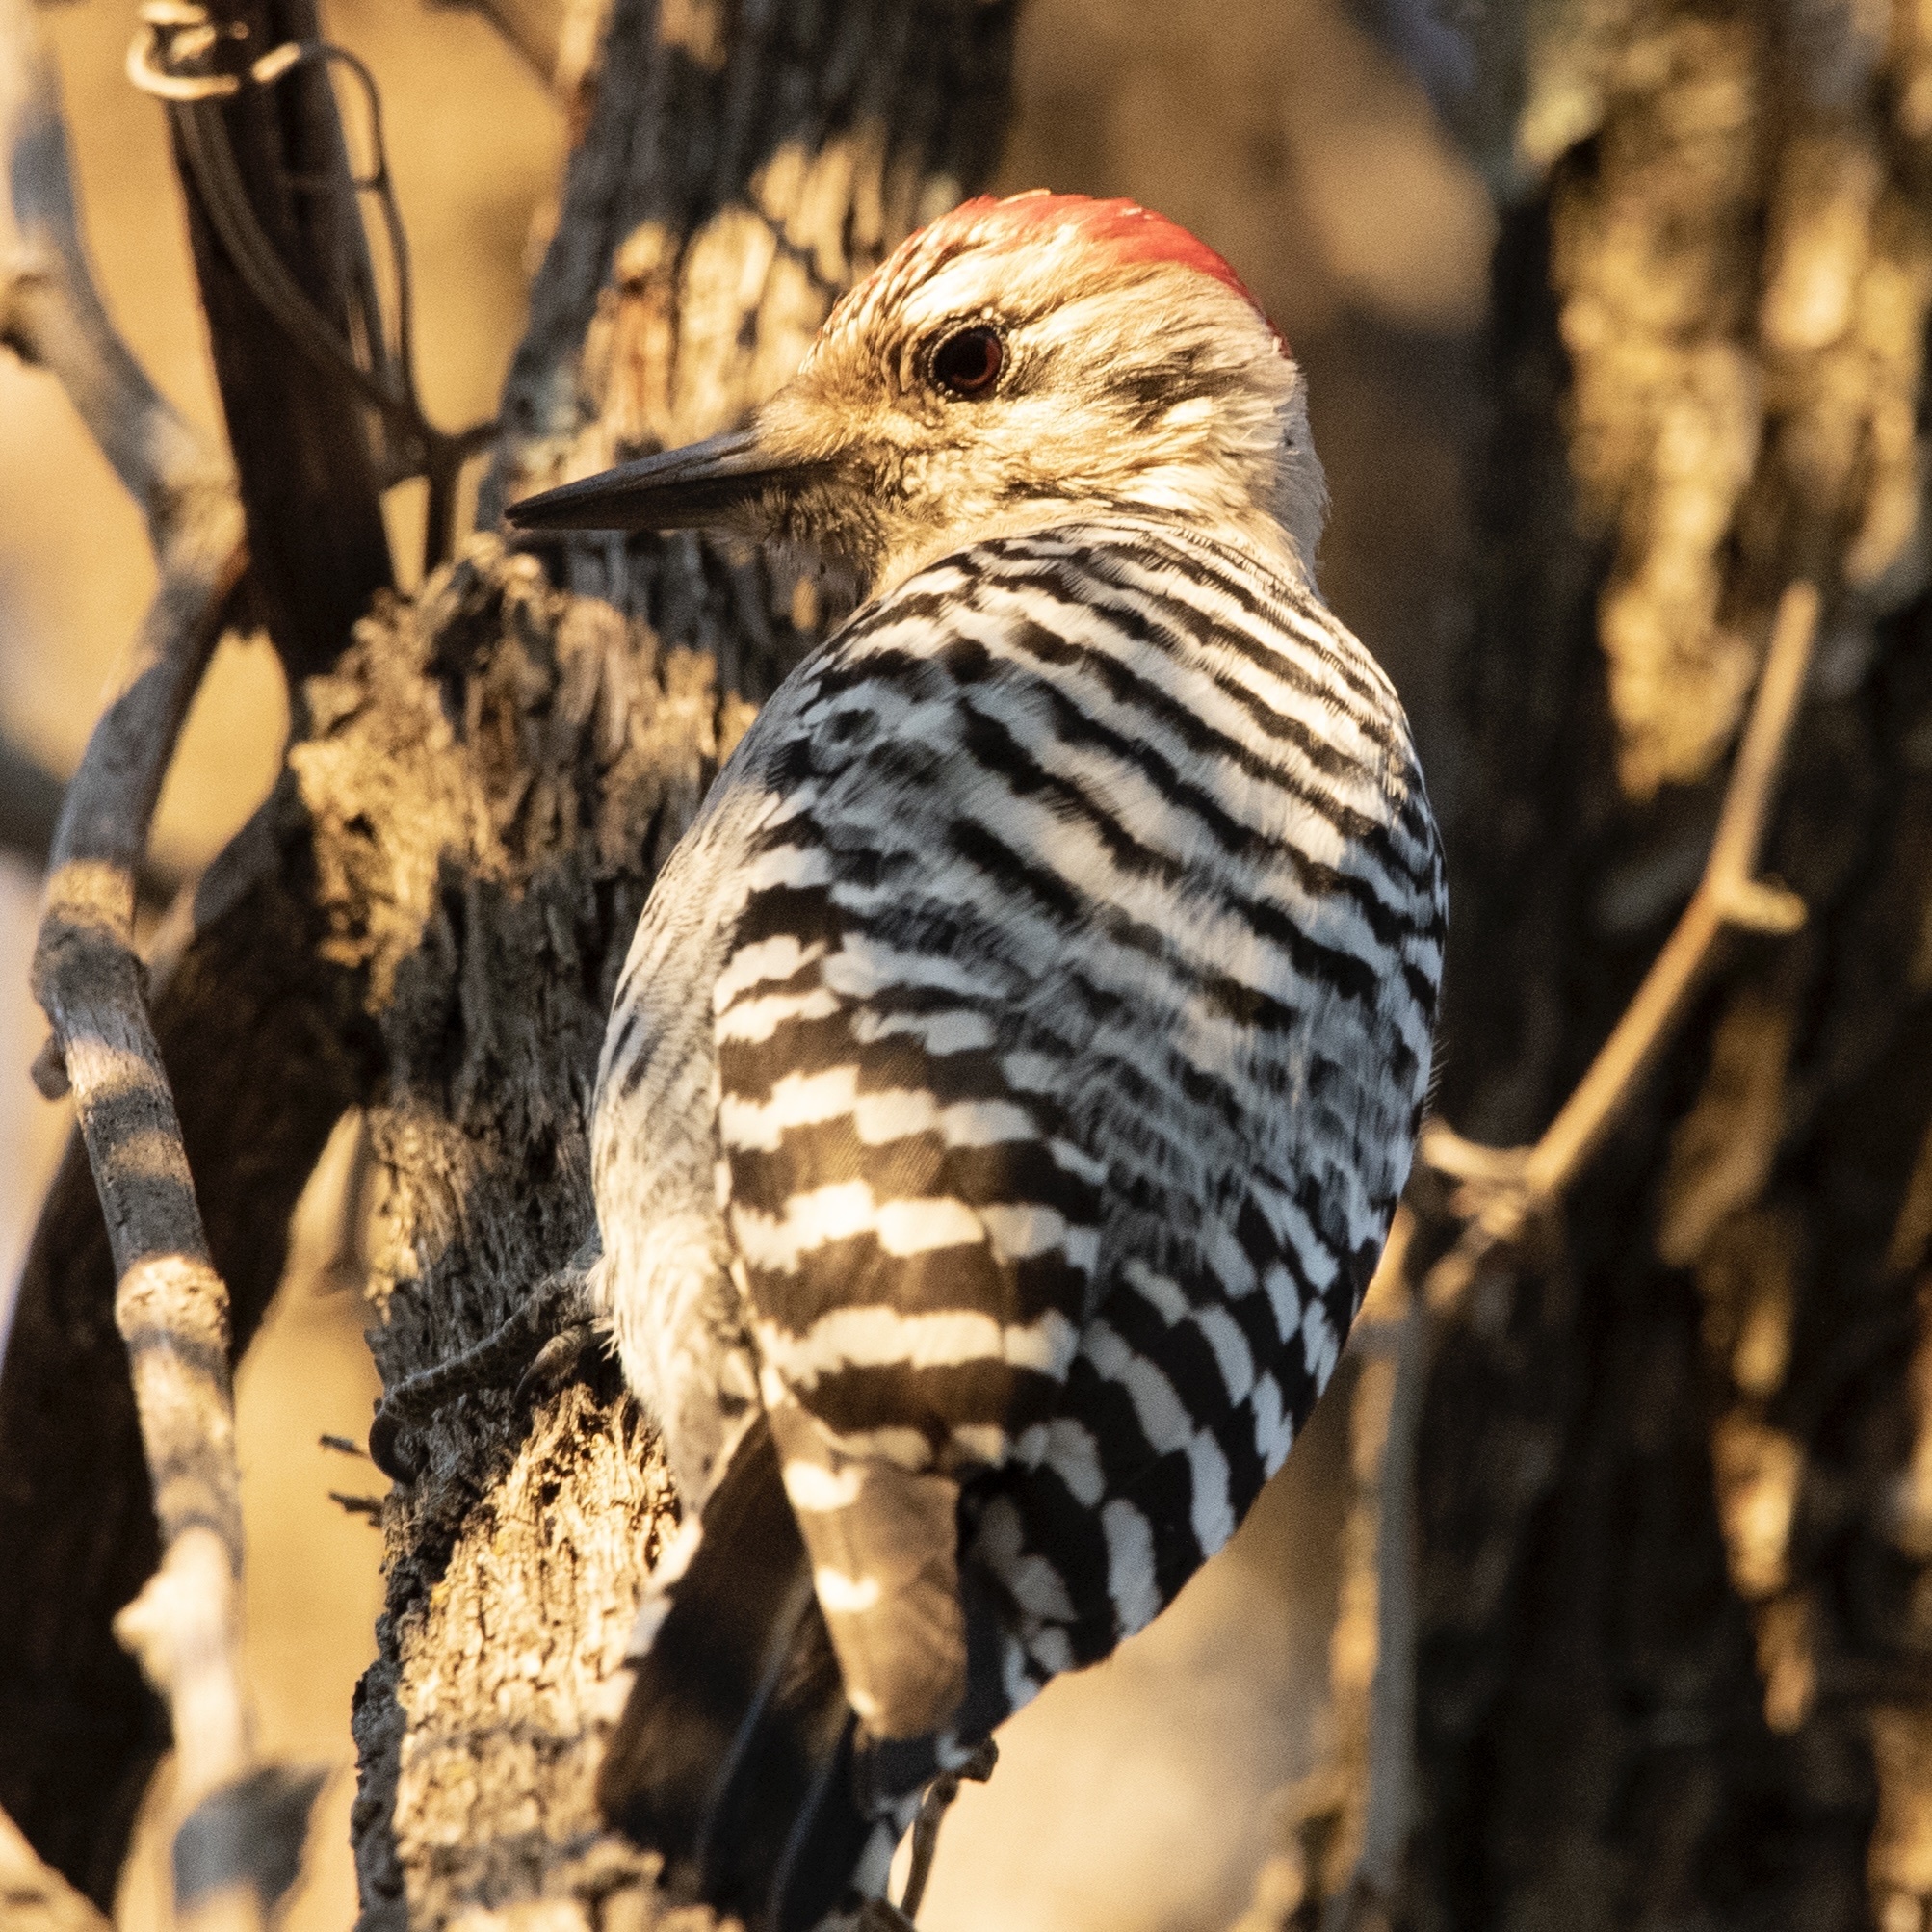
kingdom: Animalia
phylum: Chordata
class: Aves
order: Piciformes
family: Picidae
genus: Dryobates
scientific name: Dryobates scalaris
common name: Ladder-backed woodpecker
